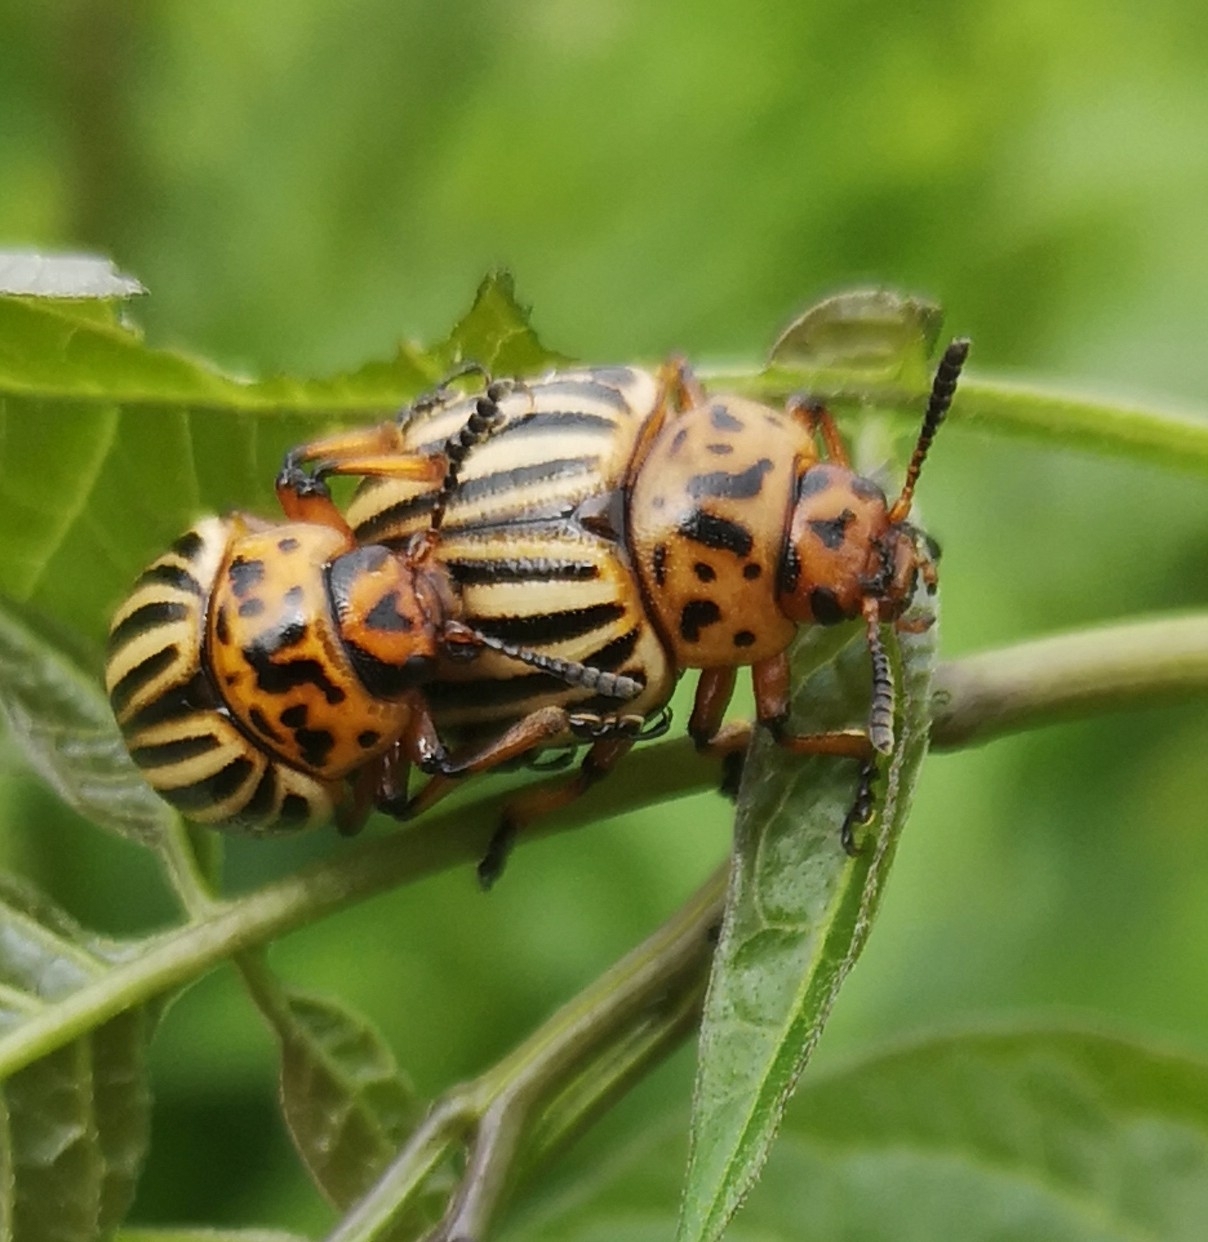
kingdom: Animalia
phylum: Arthropoda
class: Insecta
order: Coleoptera
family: Chrysomelidae
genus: Leptinotarsa
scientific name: Leptinotarsa decemlineata
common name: Colorado potato beetle
